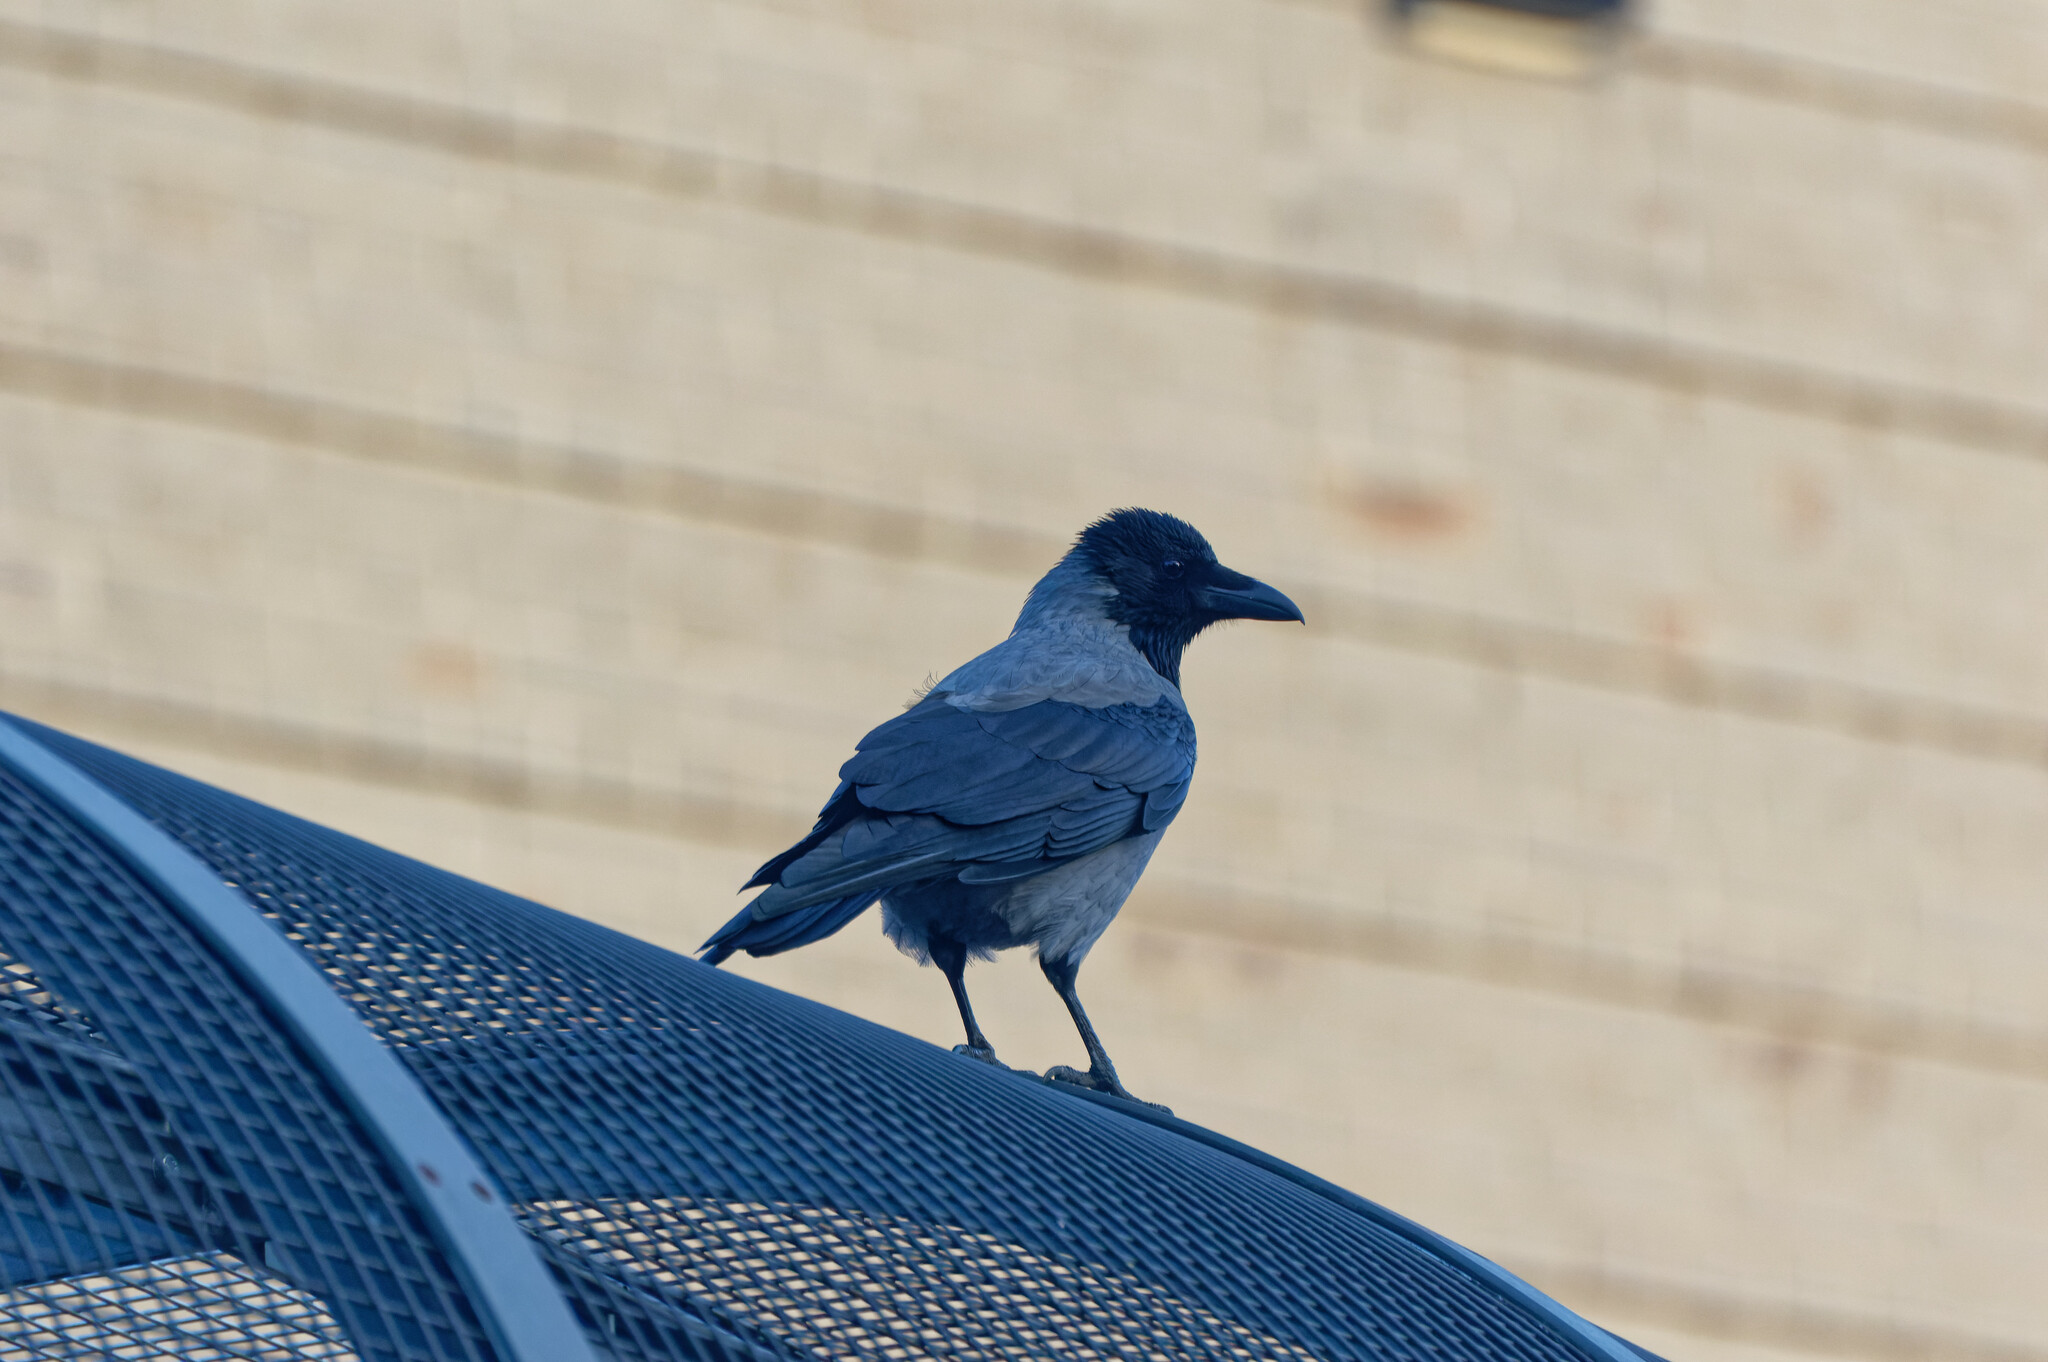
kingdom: Animalia
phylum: Chordata
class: Aves
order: Passeriformes
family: Corvidae
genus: Corvus
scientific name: Corvus cornix
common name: Hooded crow
